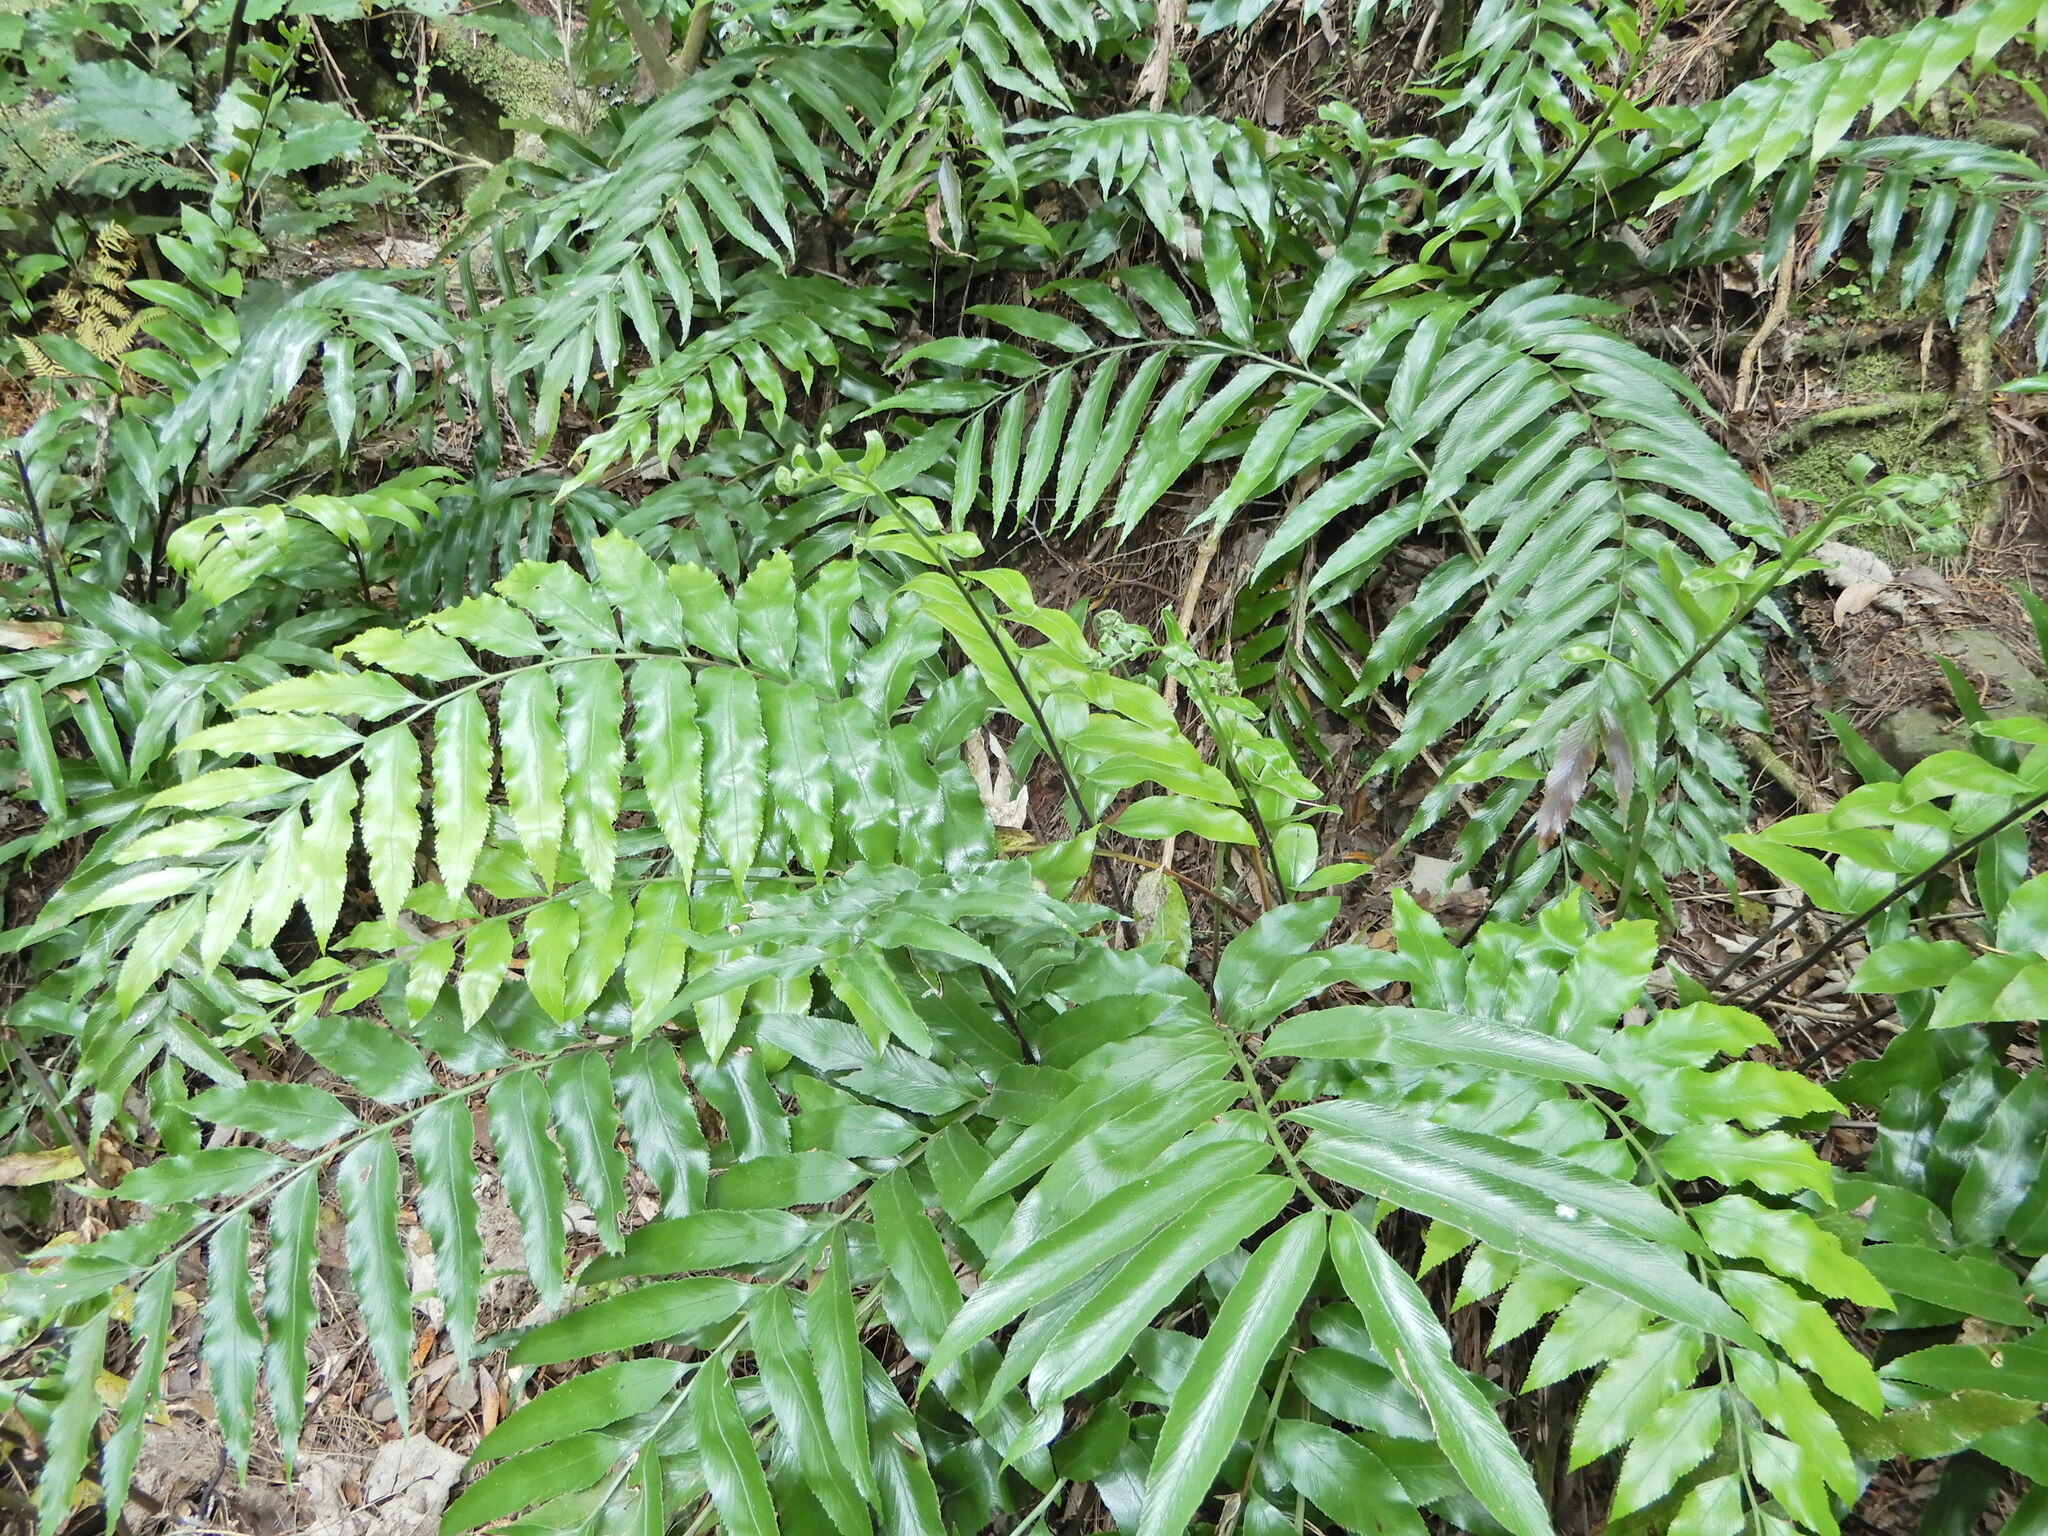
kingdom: Plantae
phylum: Tracheophyta
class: Polypodiopsida
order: Polypodiales
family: Aspleniaceae
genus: Asplenium
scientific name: Asplenium oblongifolium
